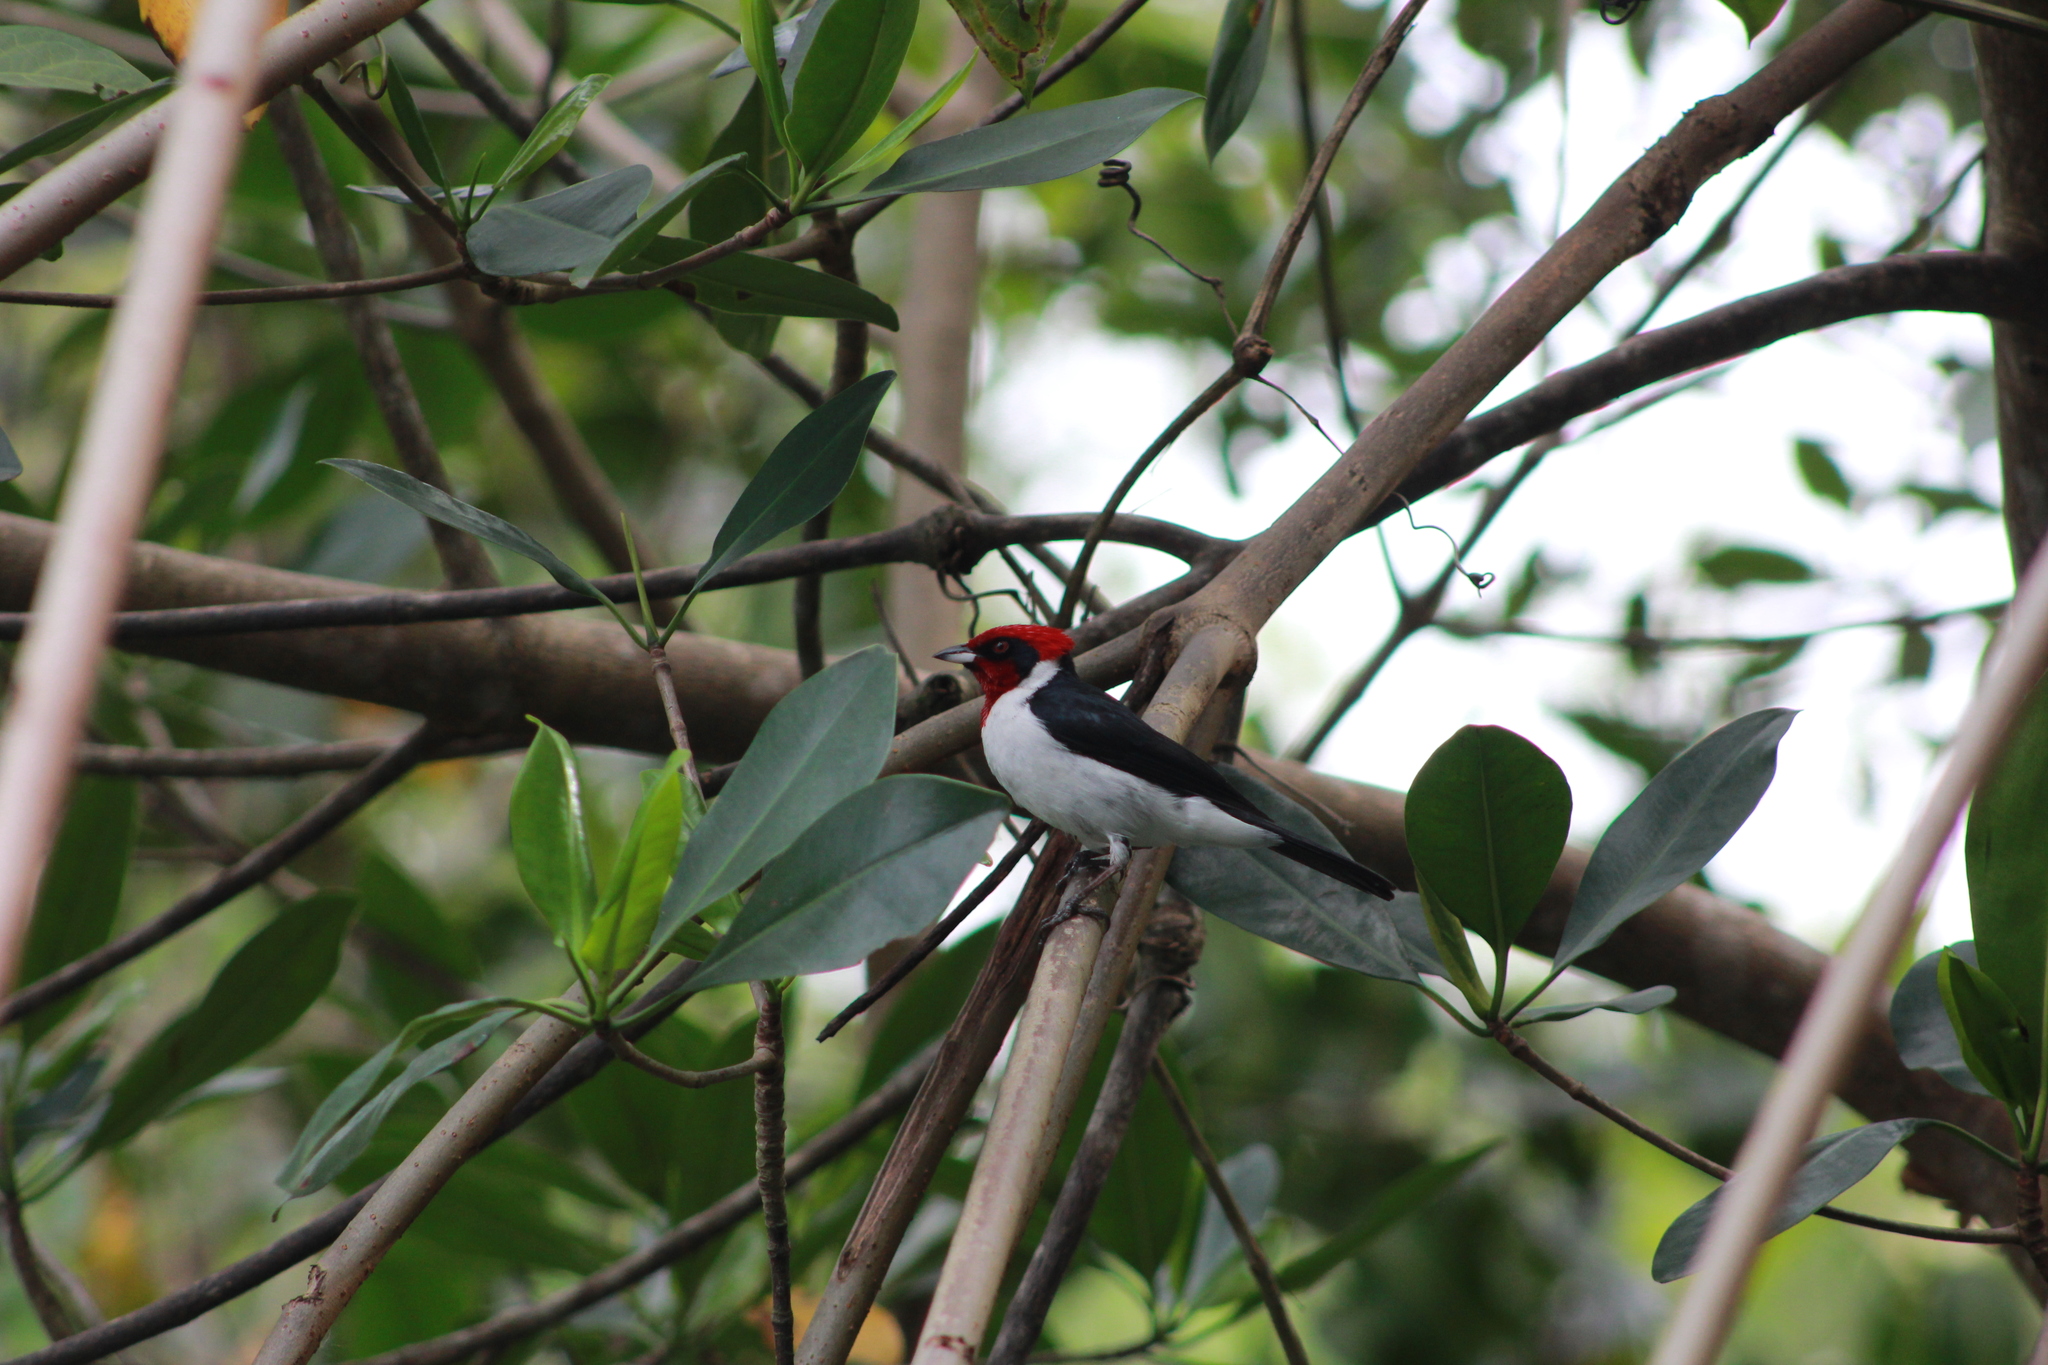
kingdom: Animalia
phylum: Chordata
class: Aves
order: Passeriformes
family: Thraupidae
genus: Paroaria
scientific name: Paroaria nigrogenis
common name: Masked cardinal
